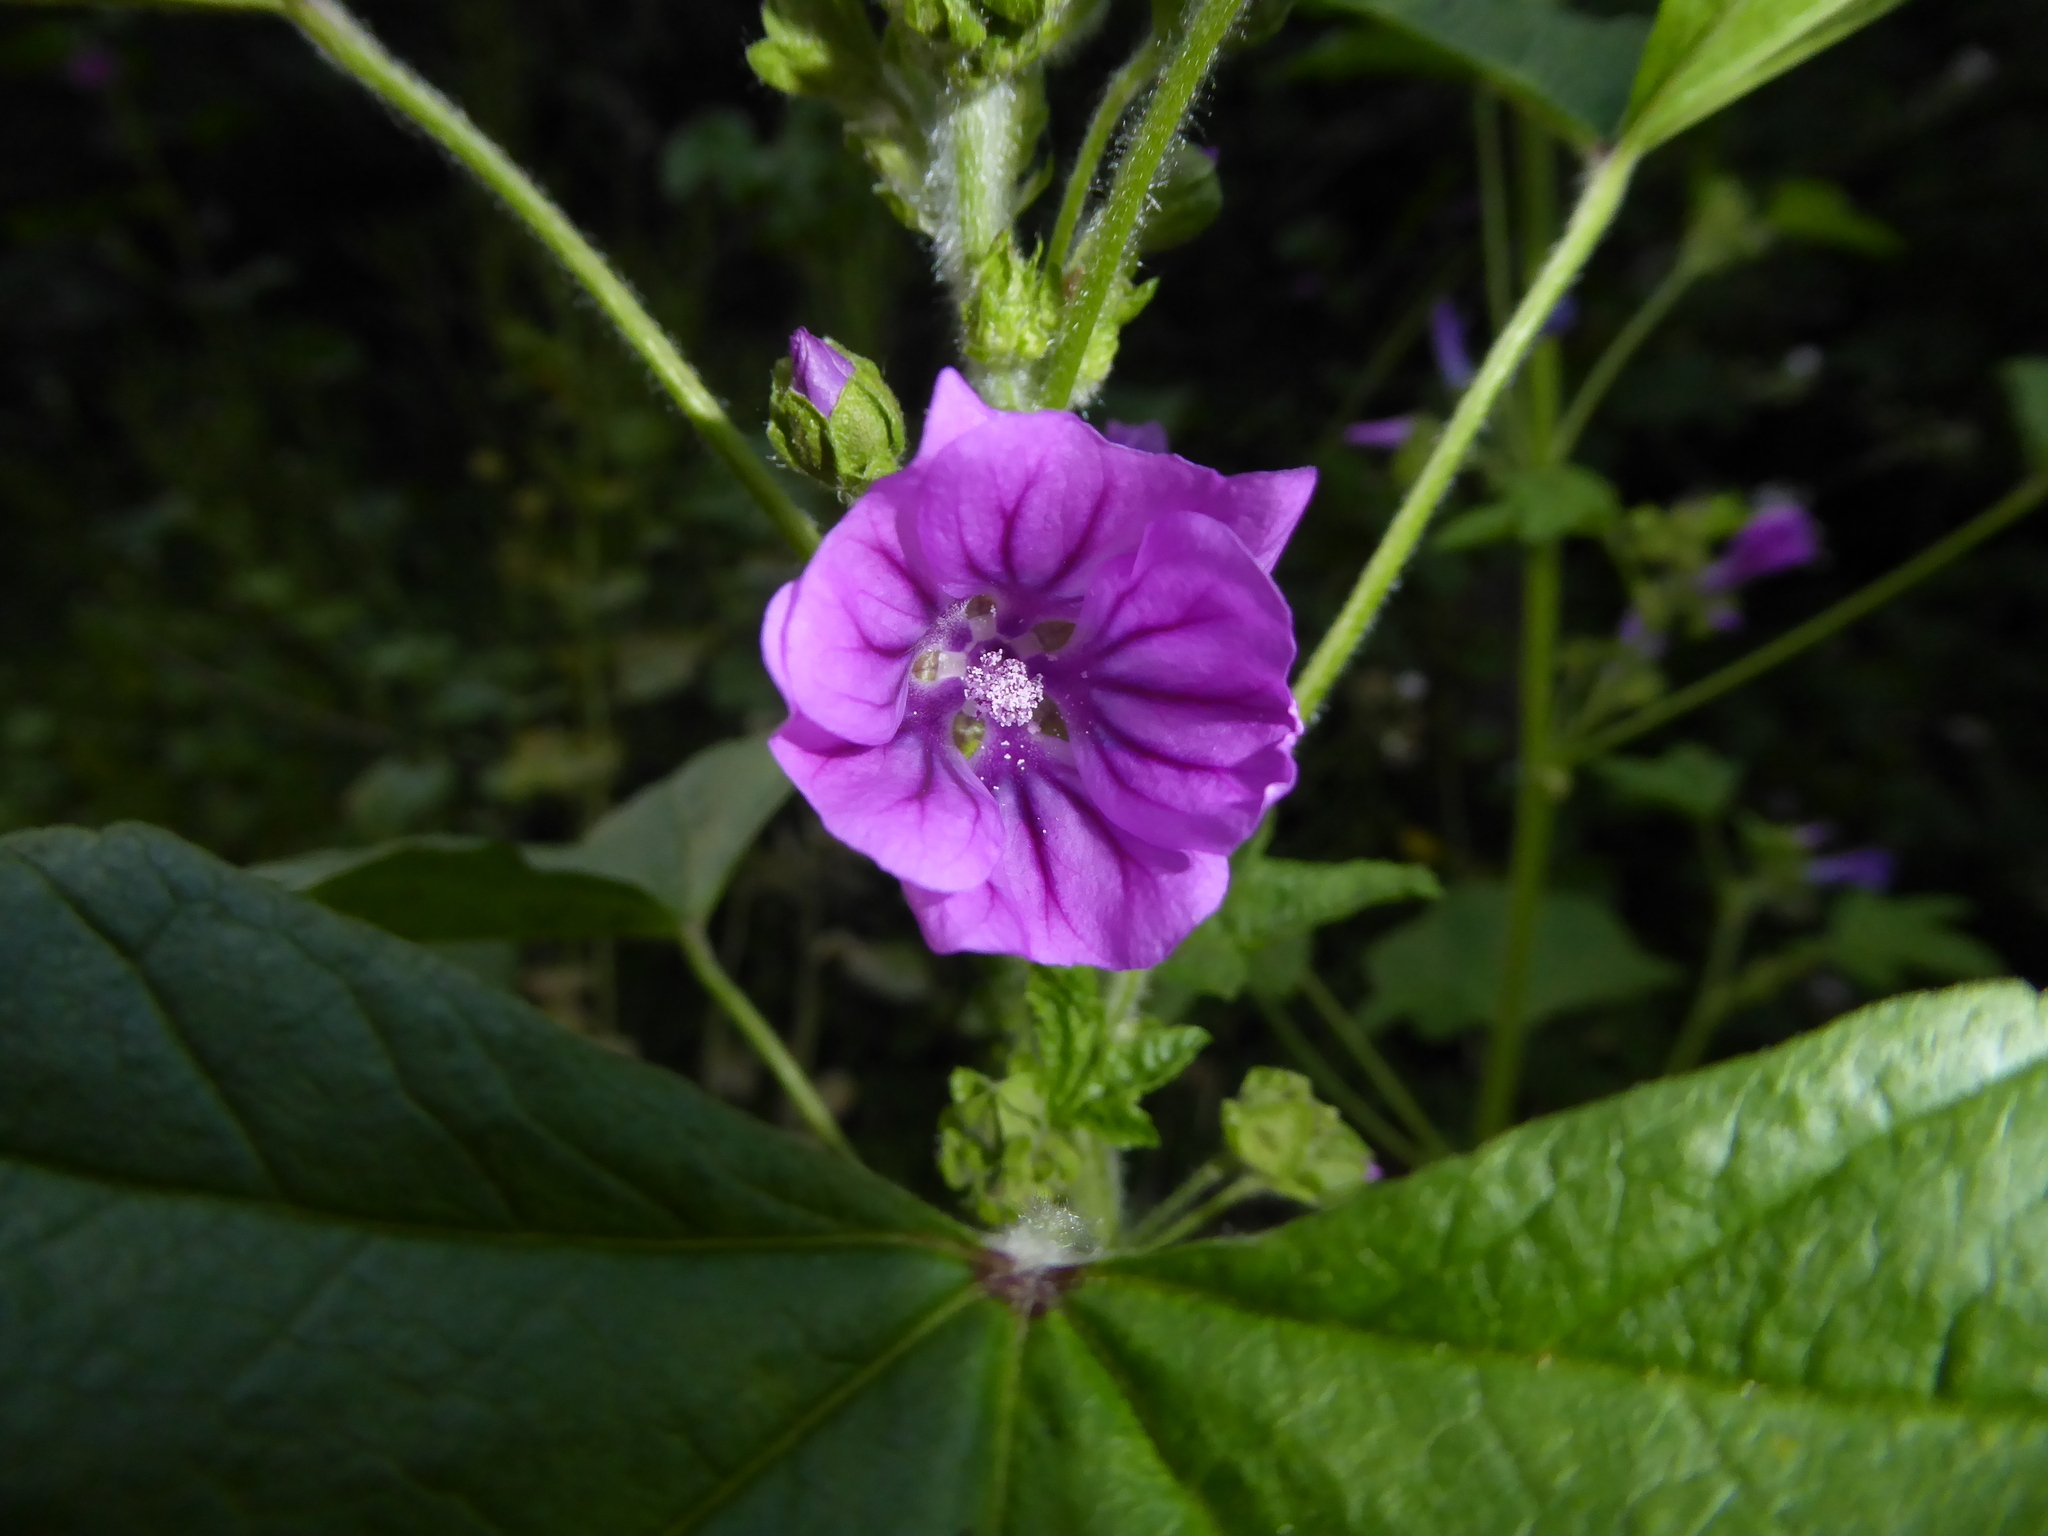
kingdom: Plantae
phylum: Tracheophyta
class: Magnoliopsida
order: Malvales
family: Malvaceae
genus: Malva
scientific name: Malva sylvestris
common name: Common mallow
